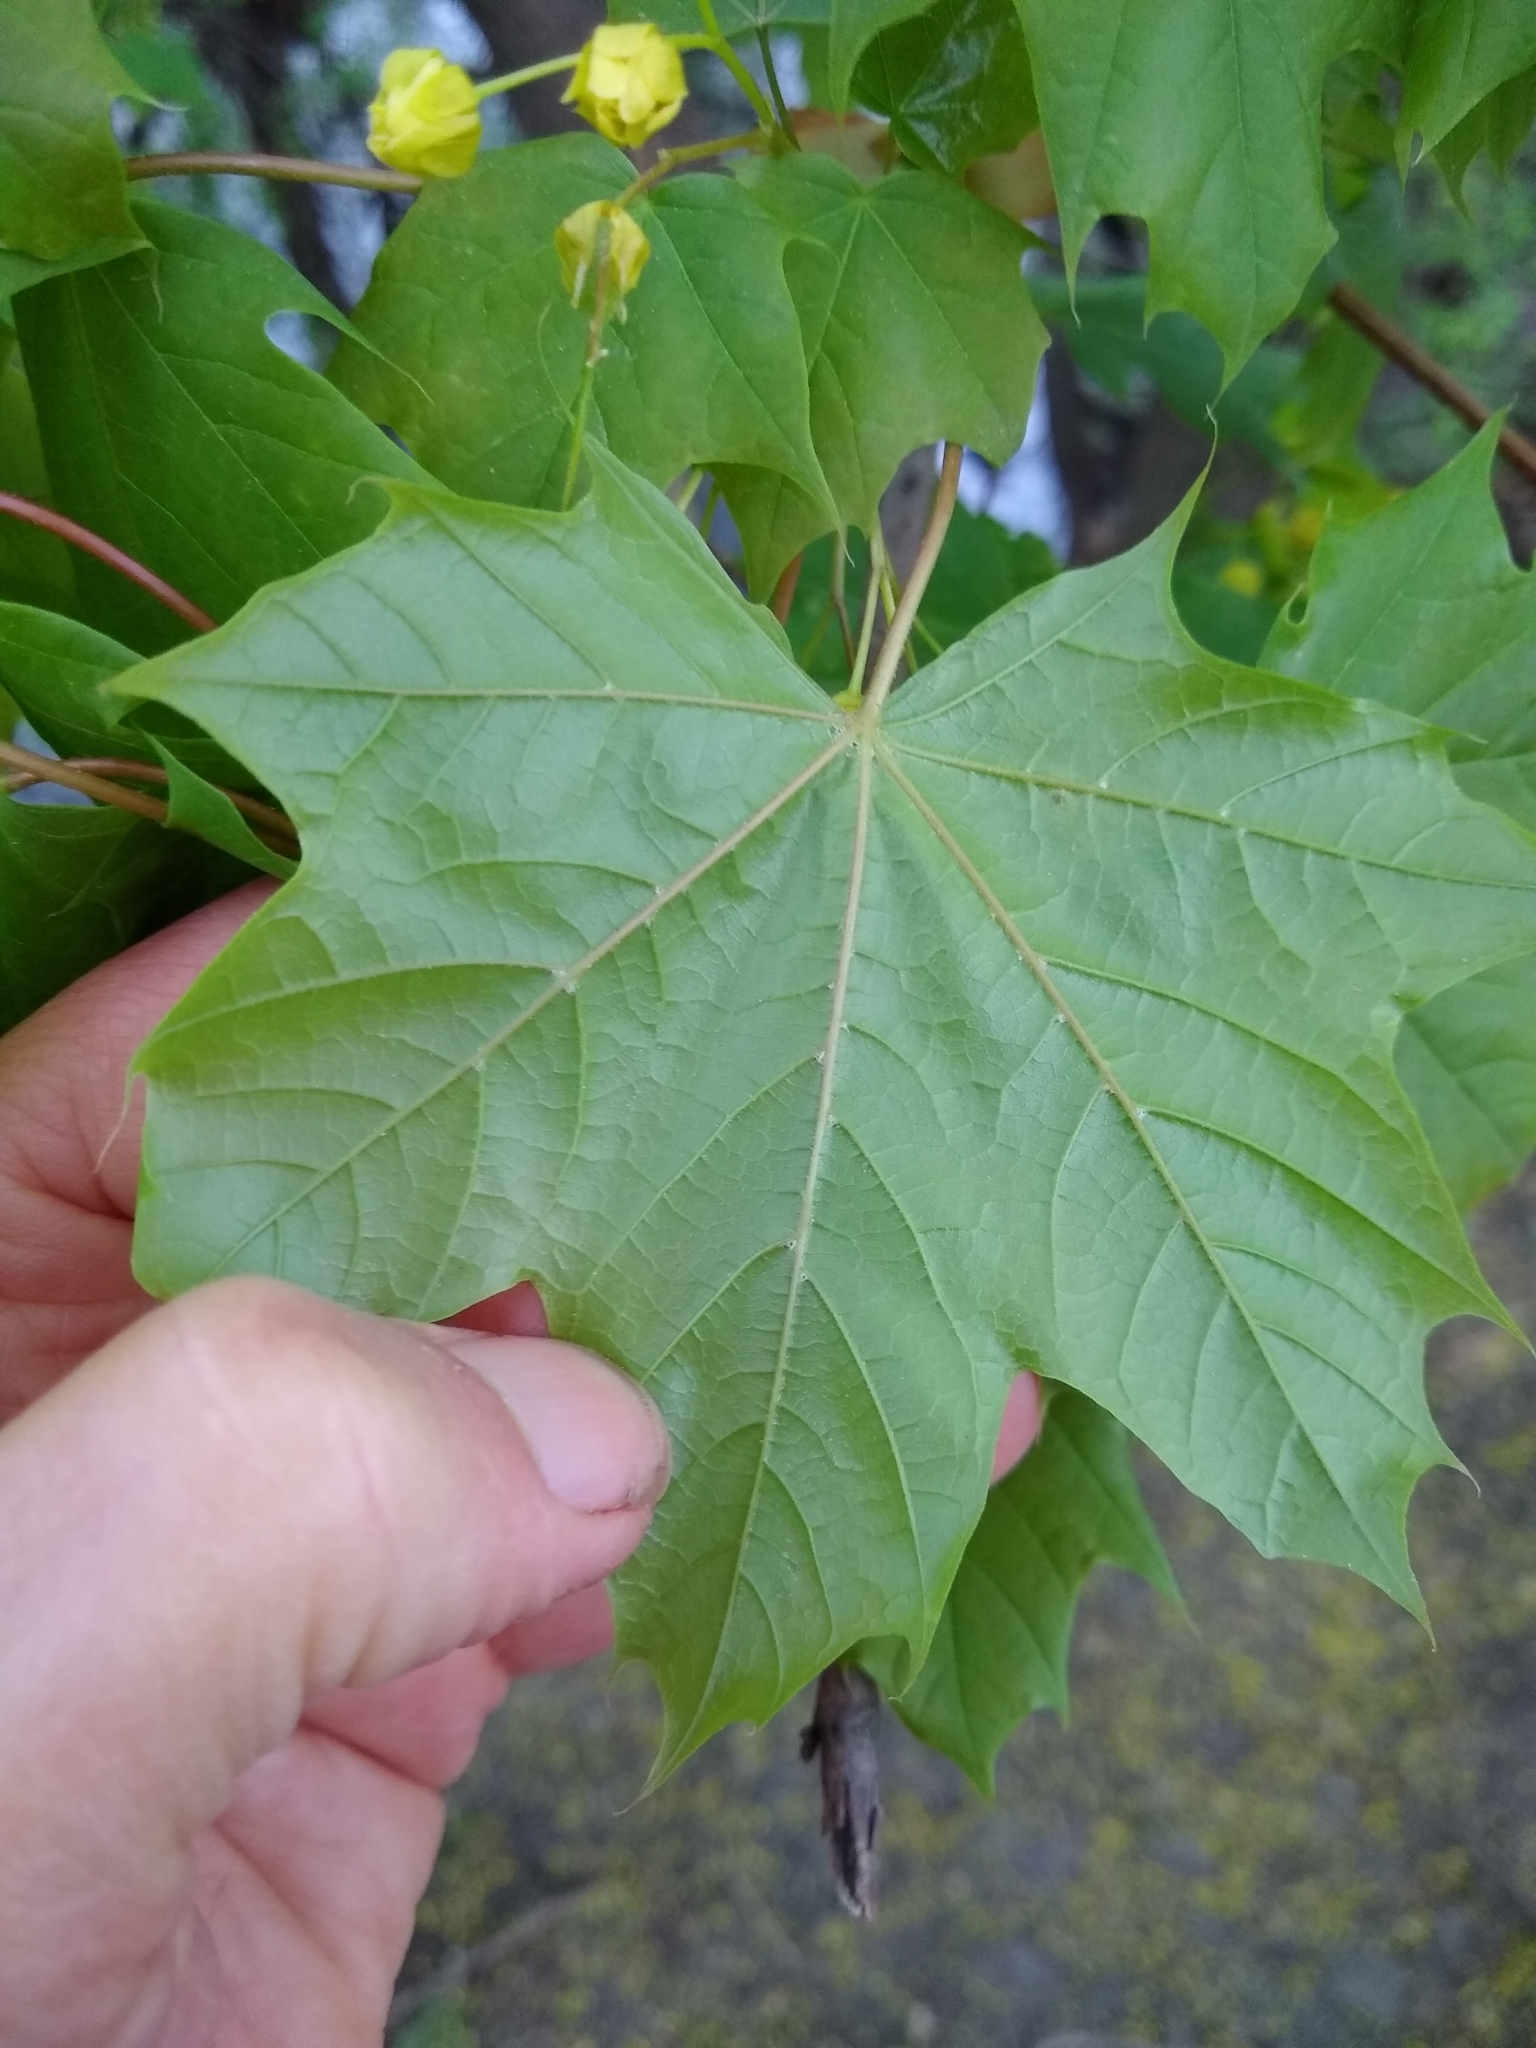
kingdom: Plantae
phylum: Tracheophyta
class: Magnoliopsida
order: Sapindales
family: Sapindaceae
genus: Acer
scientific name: Acer platanoides
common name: Norway maple
